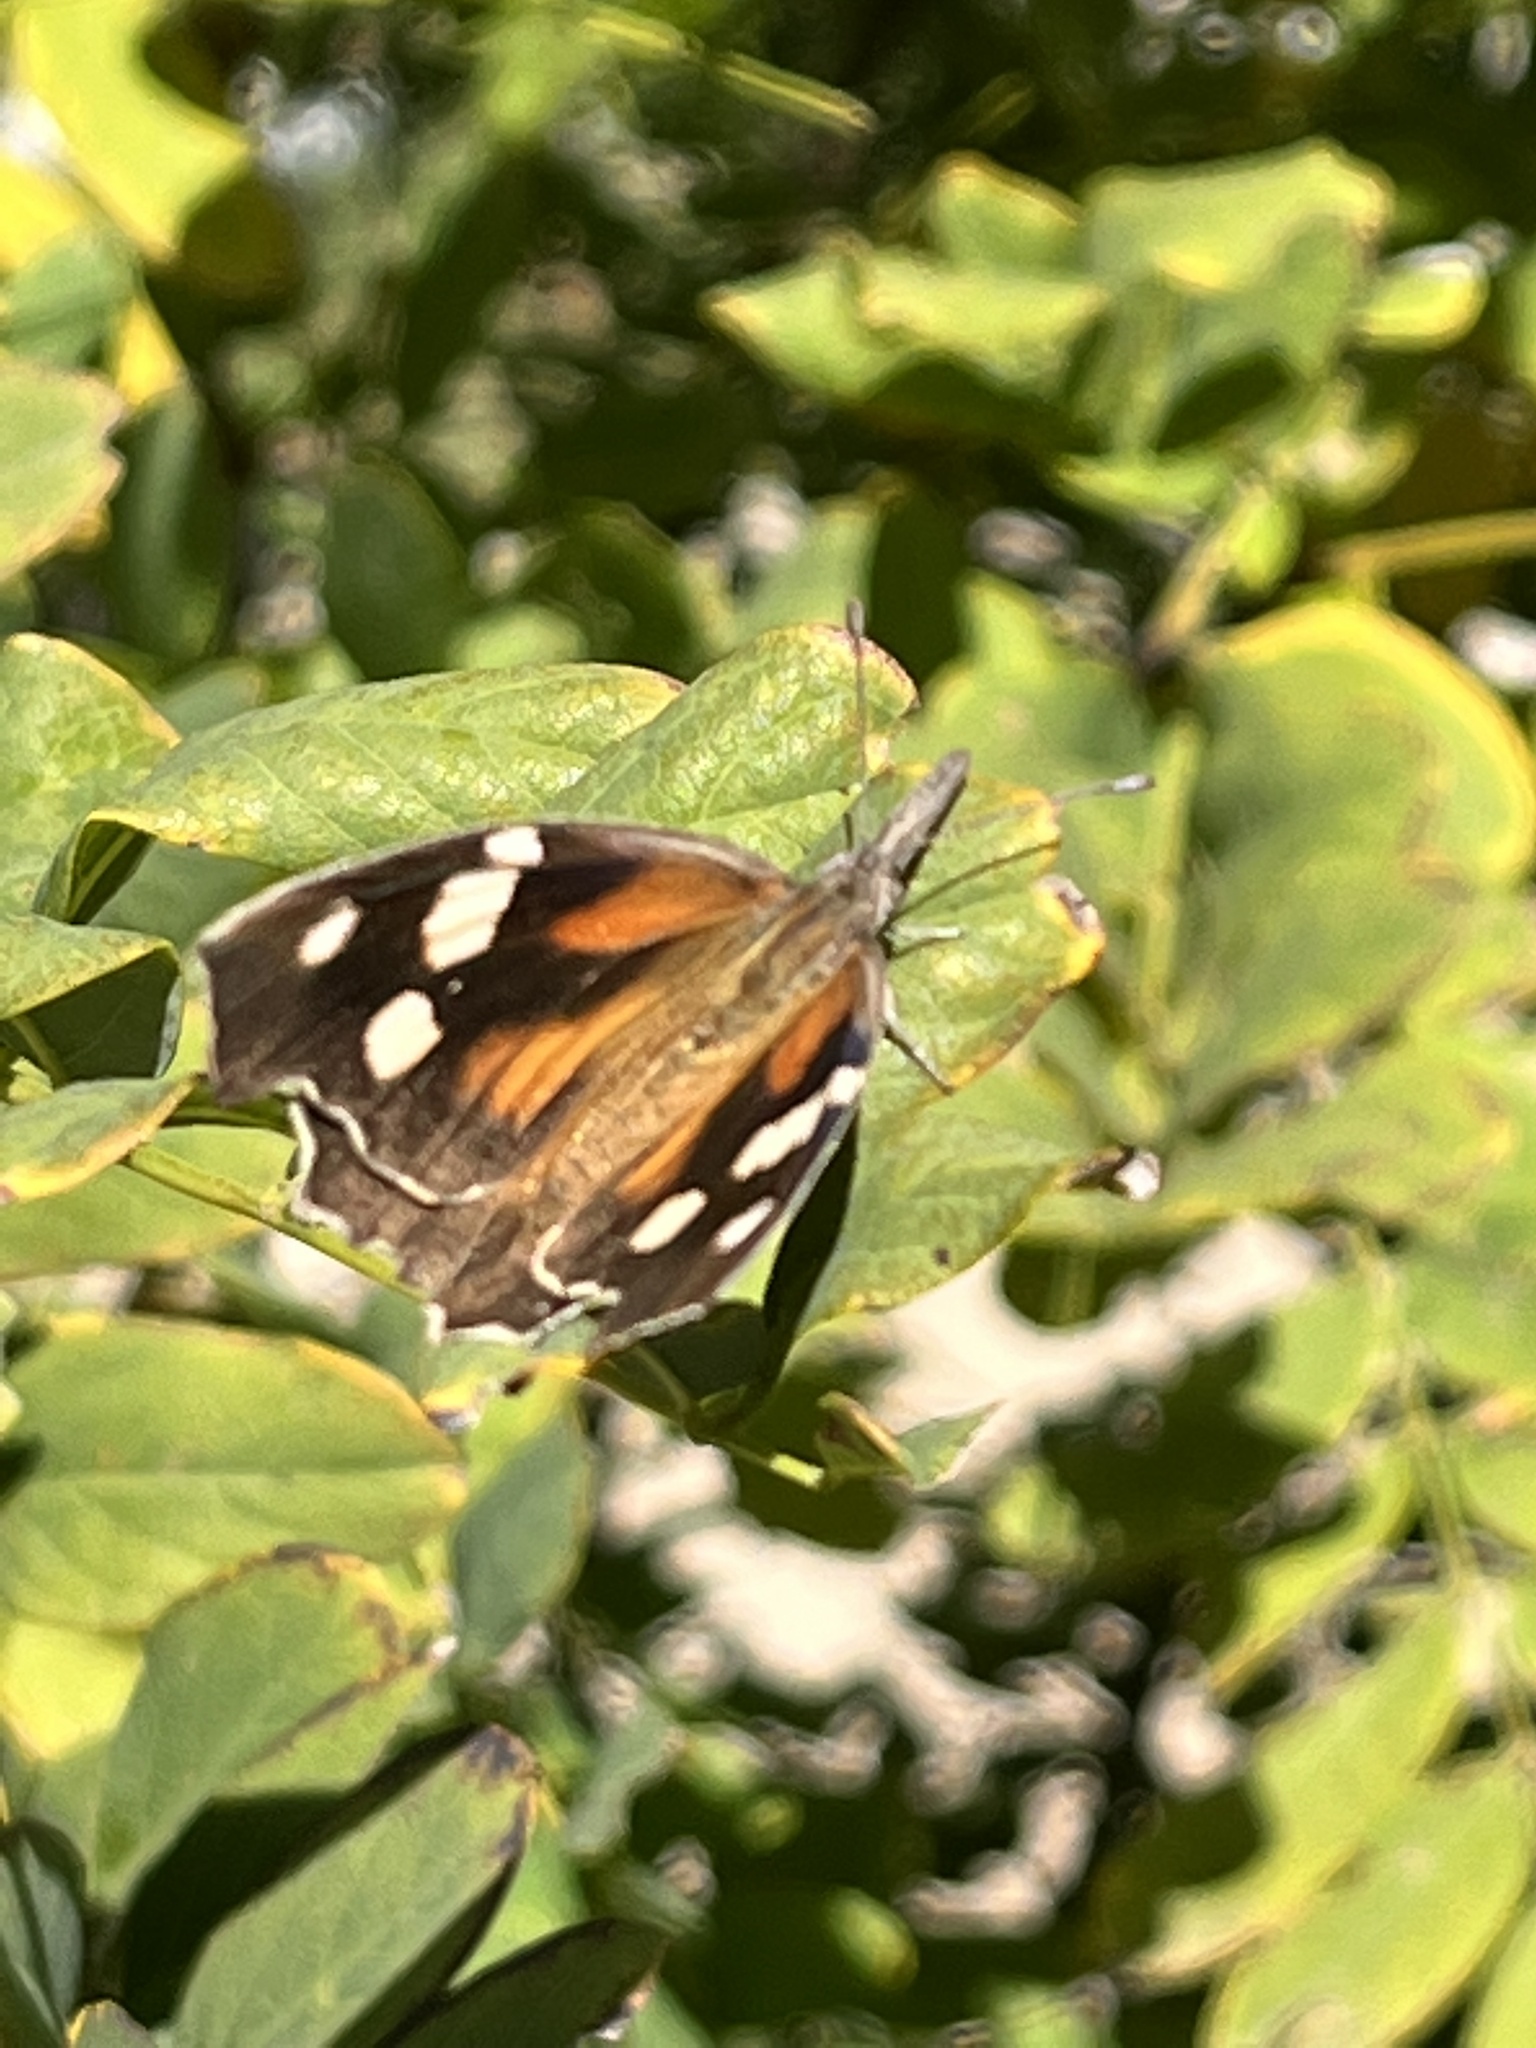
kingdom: Animalia
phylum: Arthropoda
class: Insecta
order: Lepidoptera
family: Nymphalidae
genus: Libytheana
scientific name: Libytheana carinenta
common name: American snout
